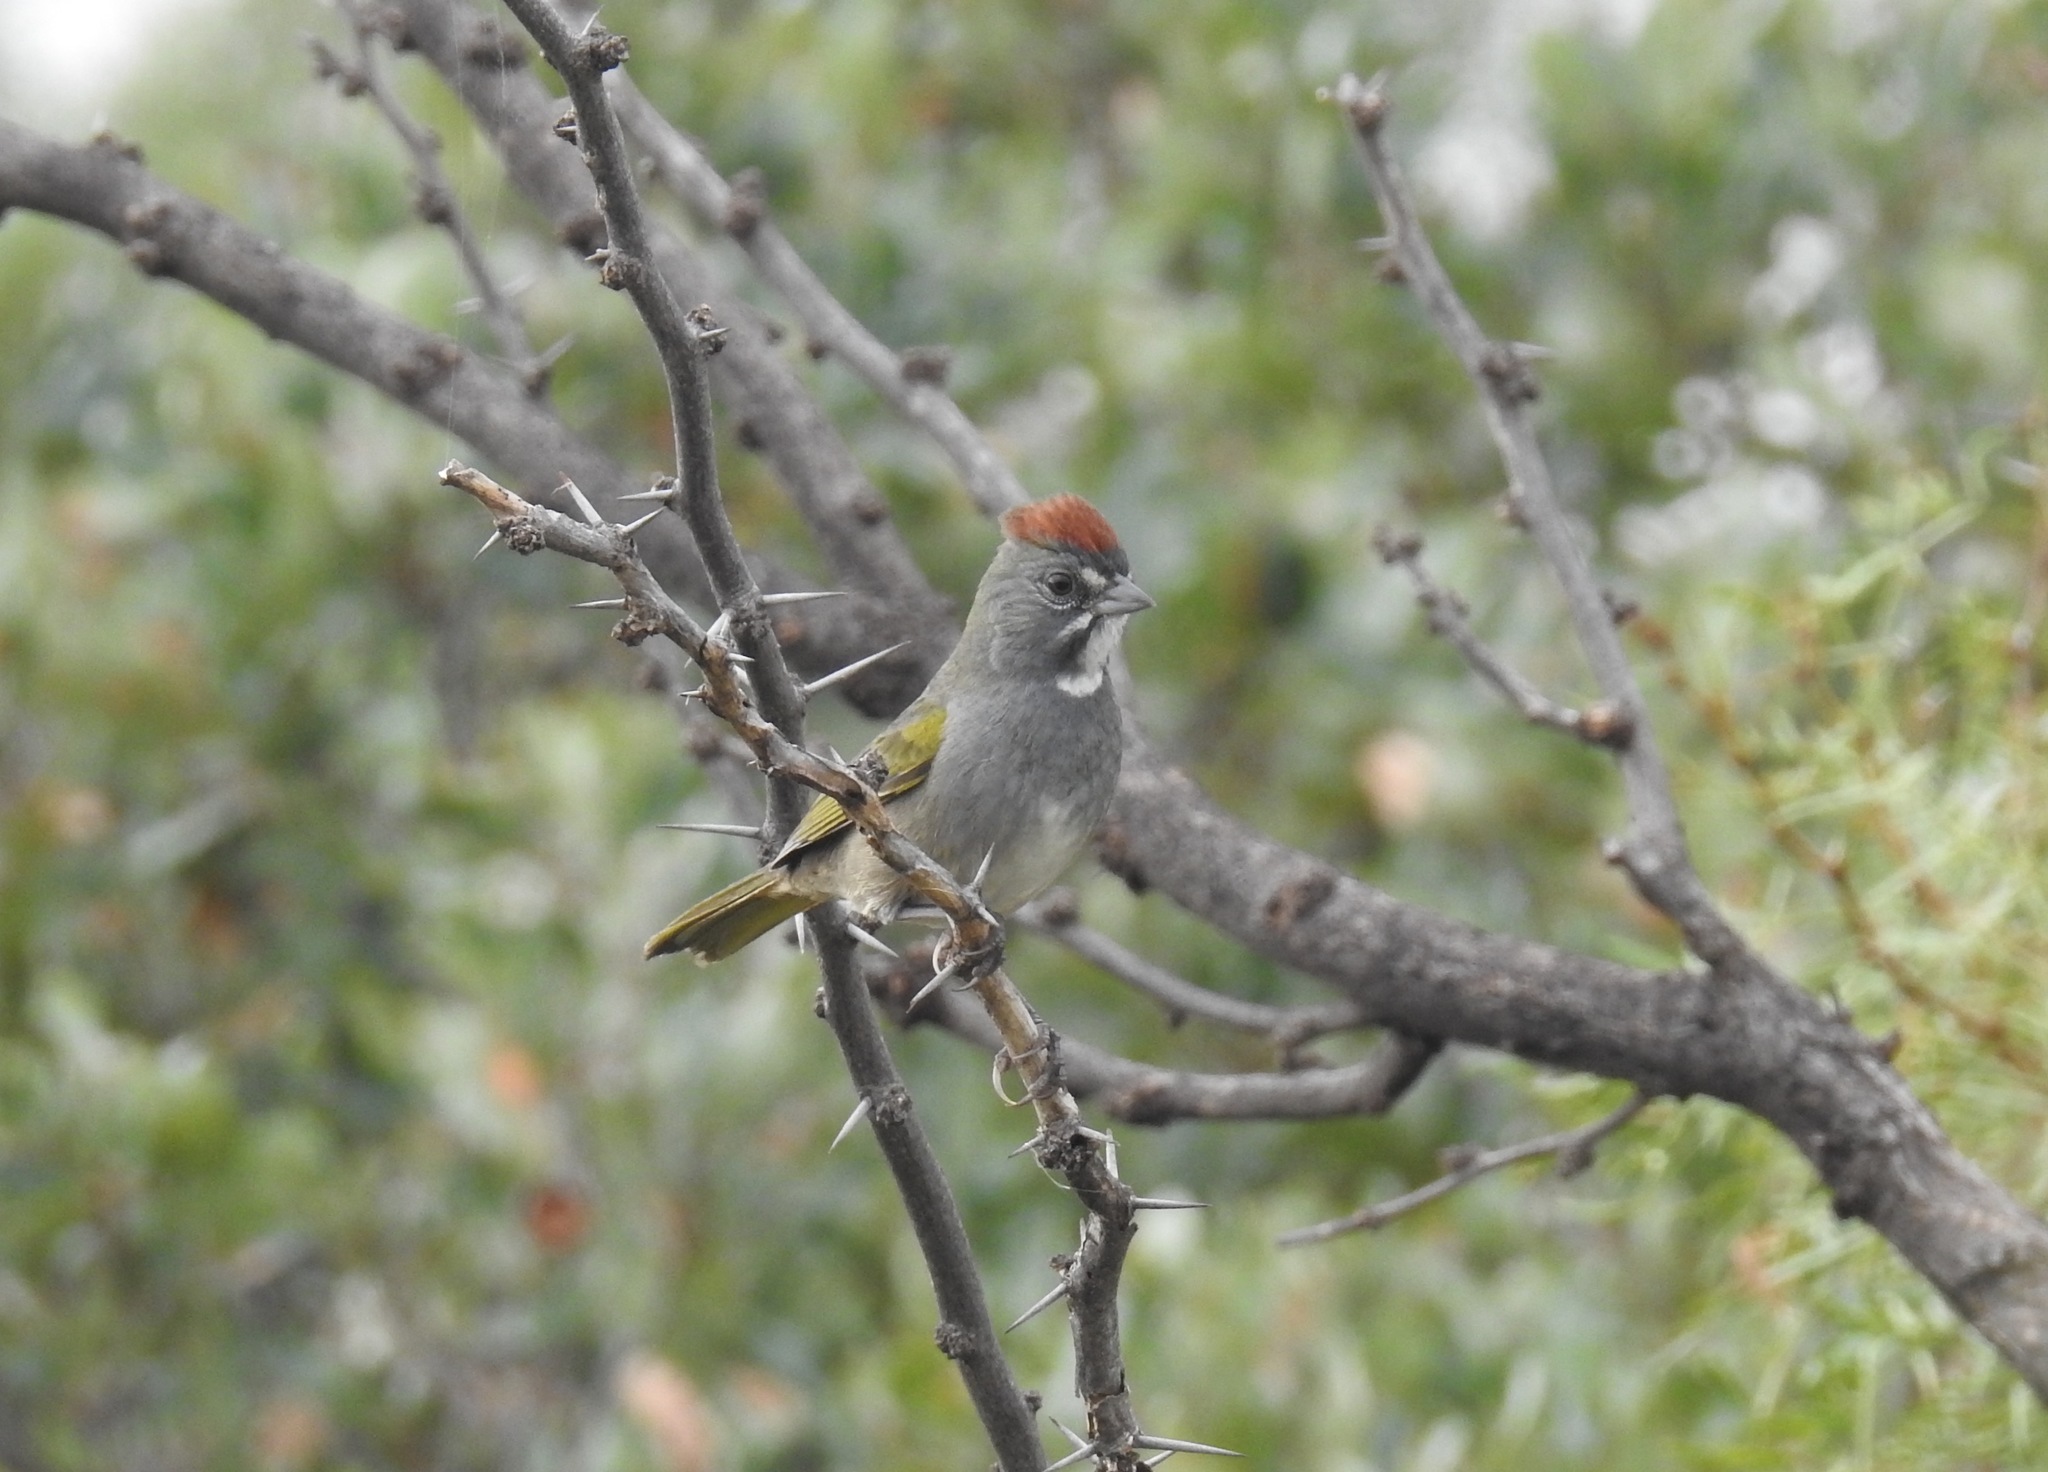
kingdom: Animalia
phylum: Chordata
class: Aves
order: Passeriformes
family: Passerellidae
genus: Pipilo
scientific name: Pipilo chlorurus
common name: Green-tailed towhee
